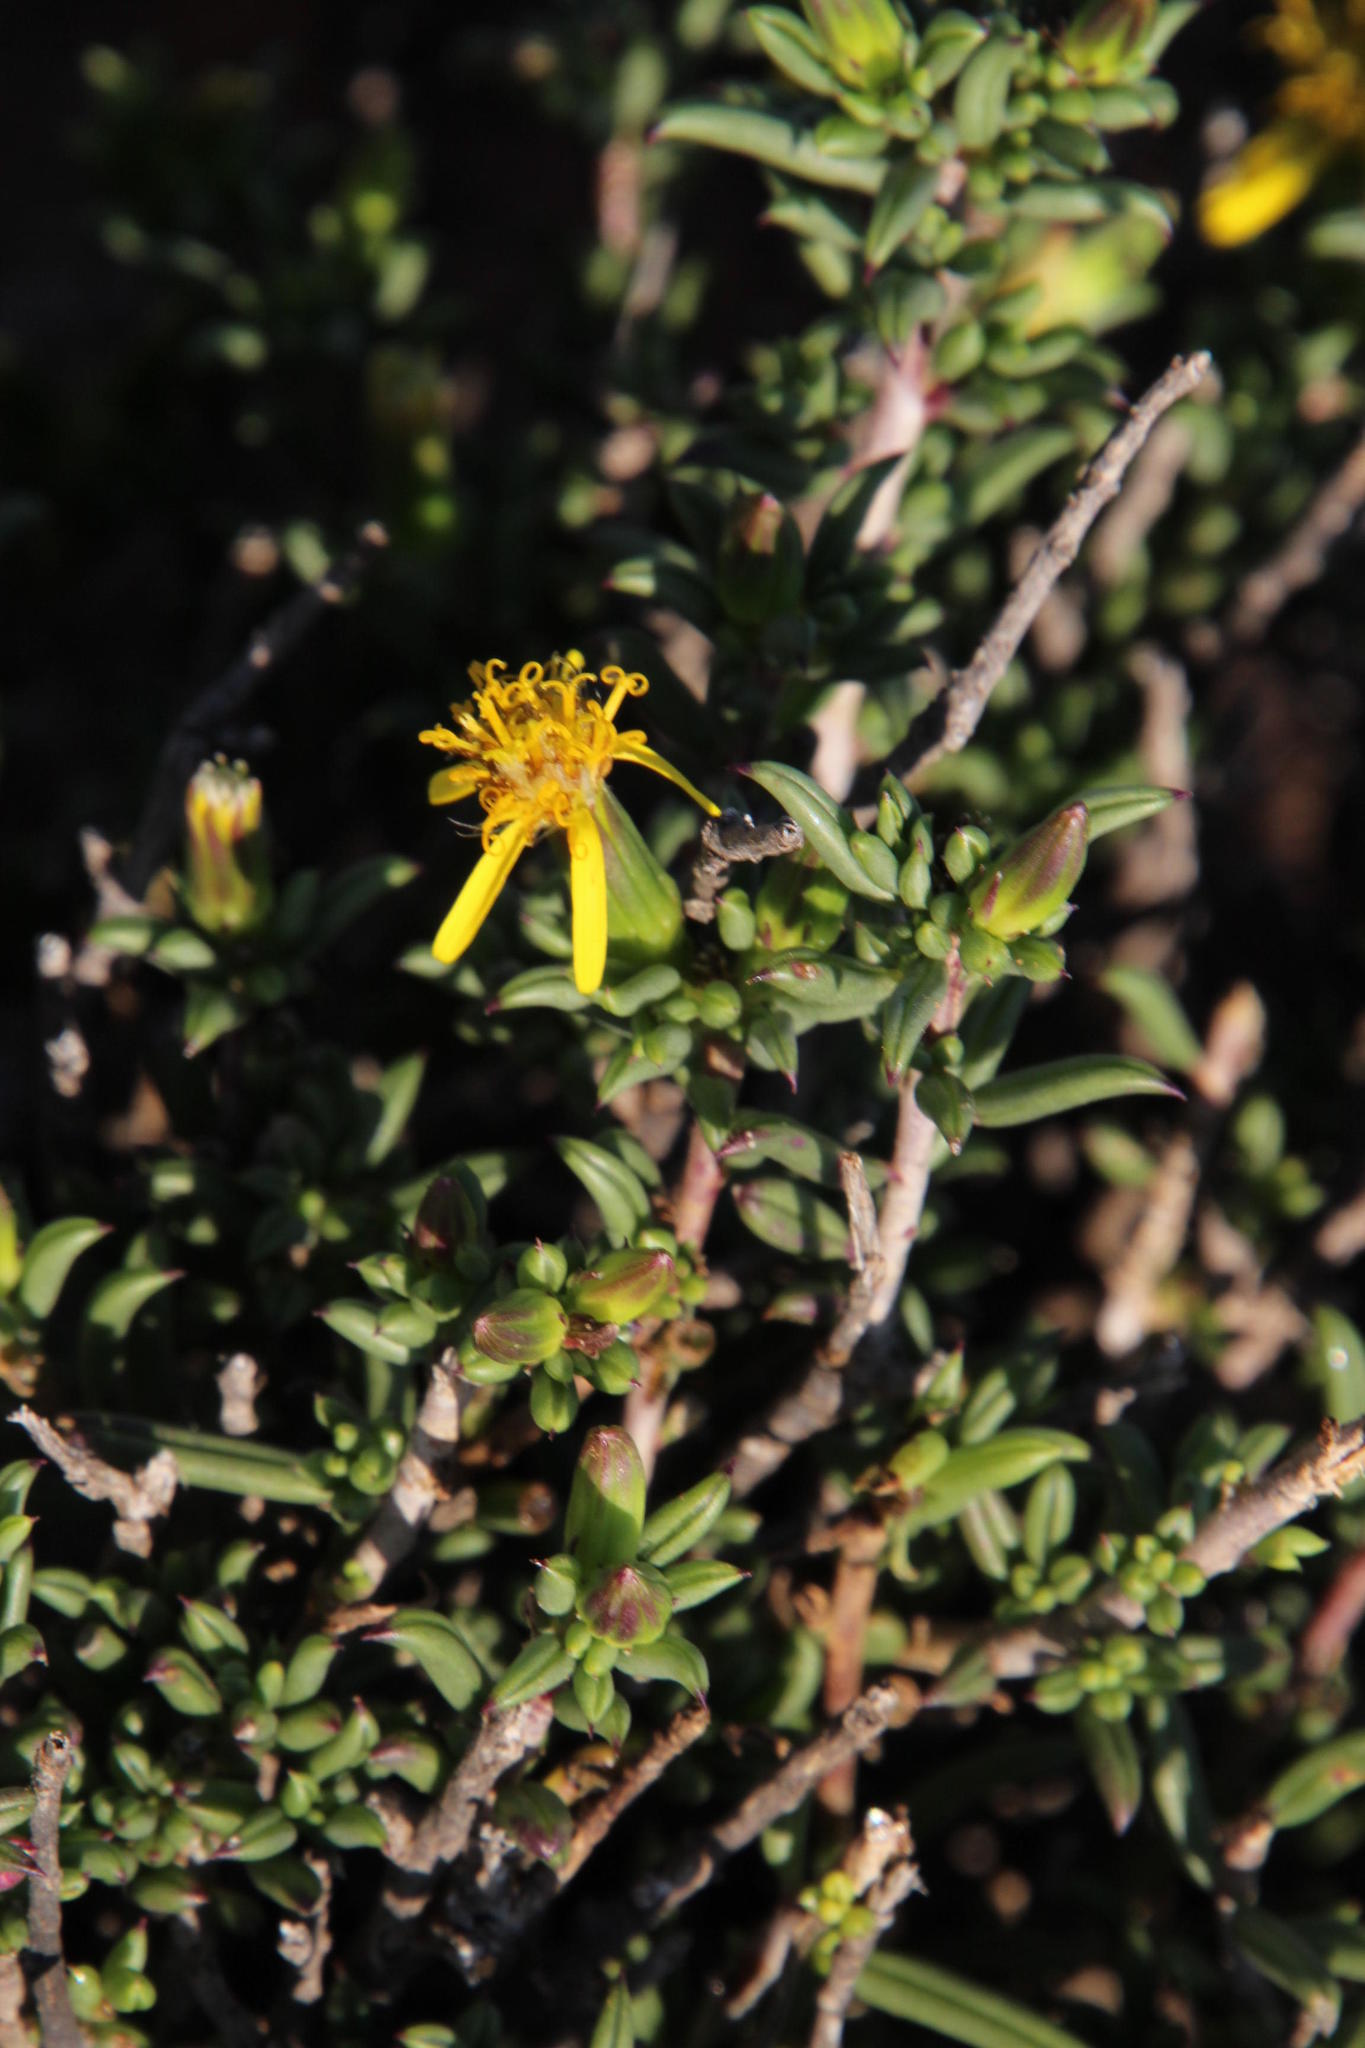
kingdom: Plantae
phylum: Tracheophyta
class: Magnoliopsida
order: Asterales
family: Asteraceae
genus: Senecio
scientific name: Senecio acutifolius
